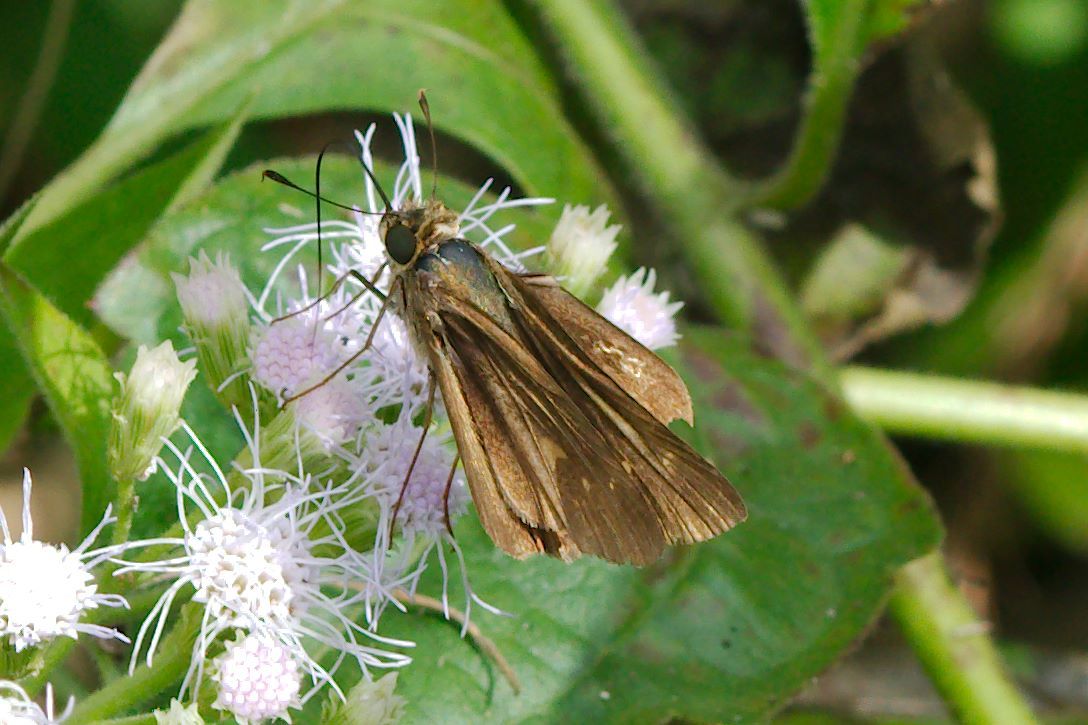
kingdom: Animalia
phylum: Arthropoda
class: Insecta
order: Lepidoptera
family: Hesperiidae
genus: Panoquina
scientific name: Panoquina ocola
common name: Ocola skipper
